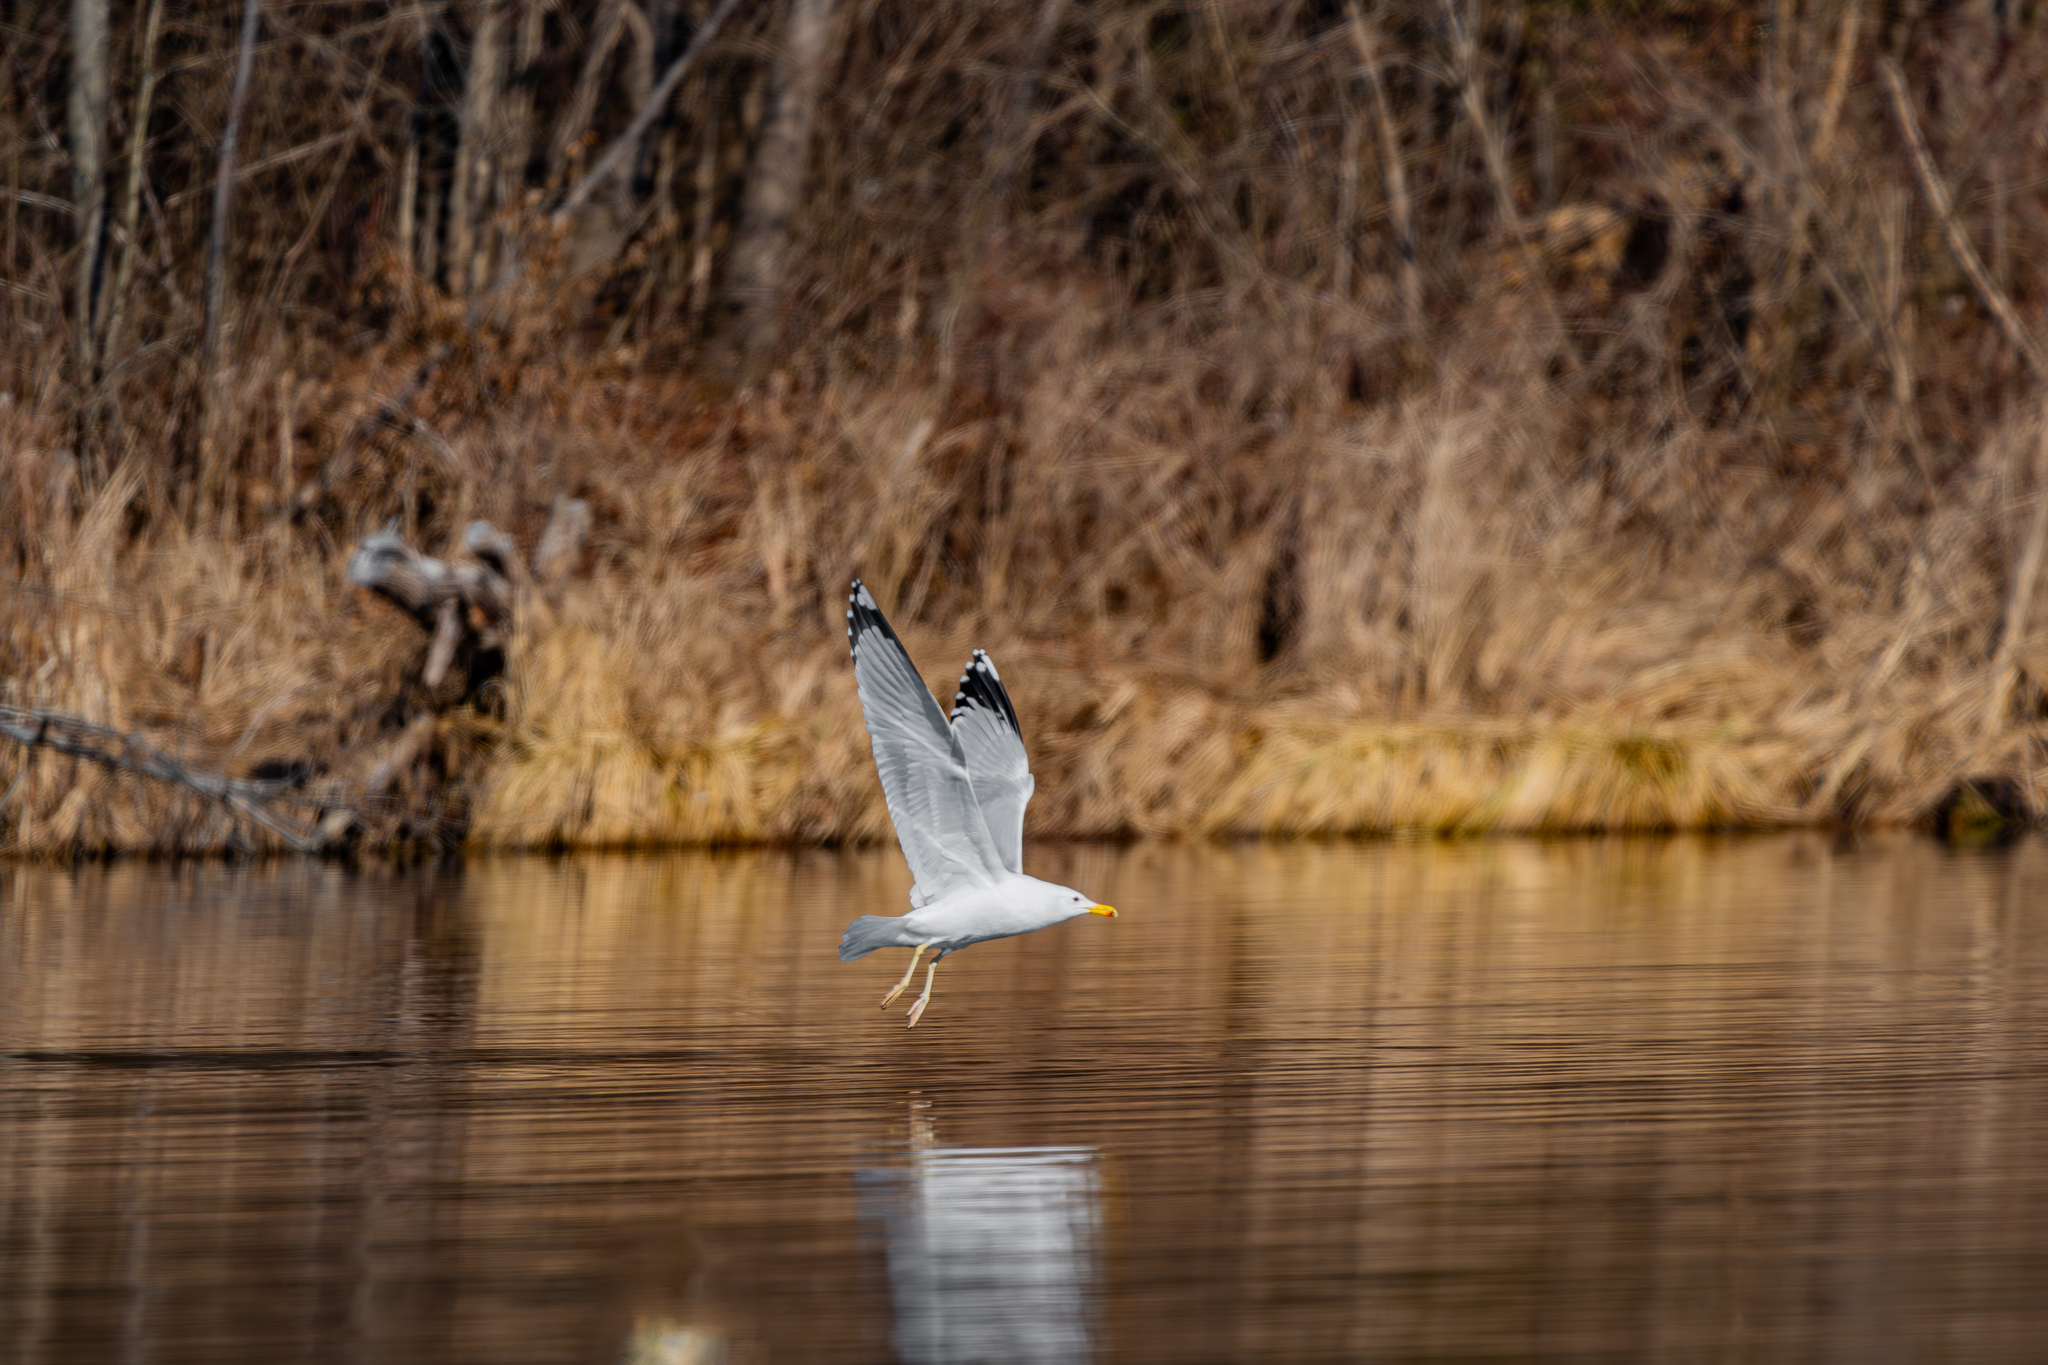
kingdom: Animalia
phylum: Chordata
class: Aves
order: Charadriiformes
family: Laridae
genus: Larus
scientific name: Larus cachinnans
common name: Caspian gull
